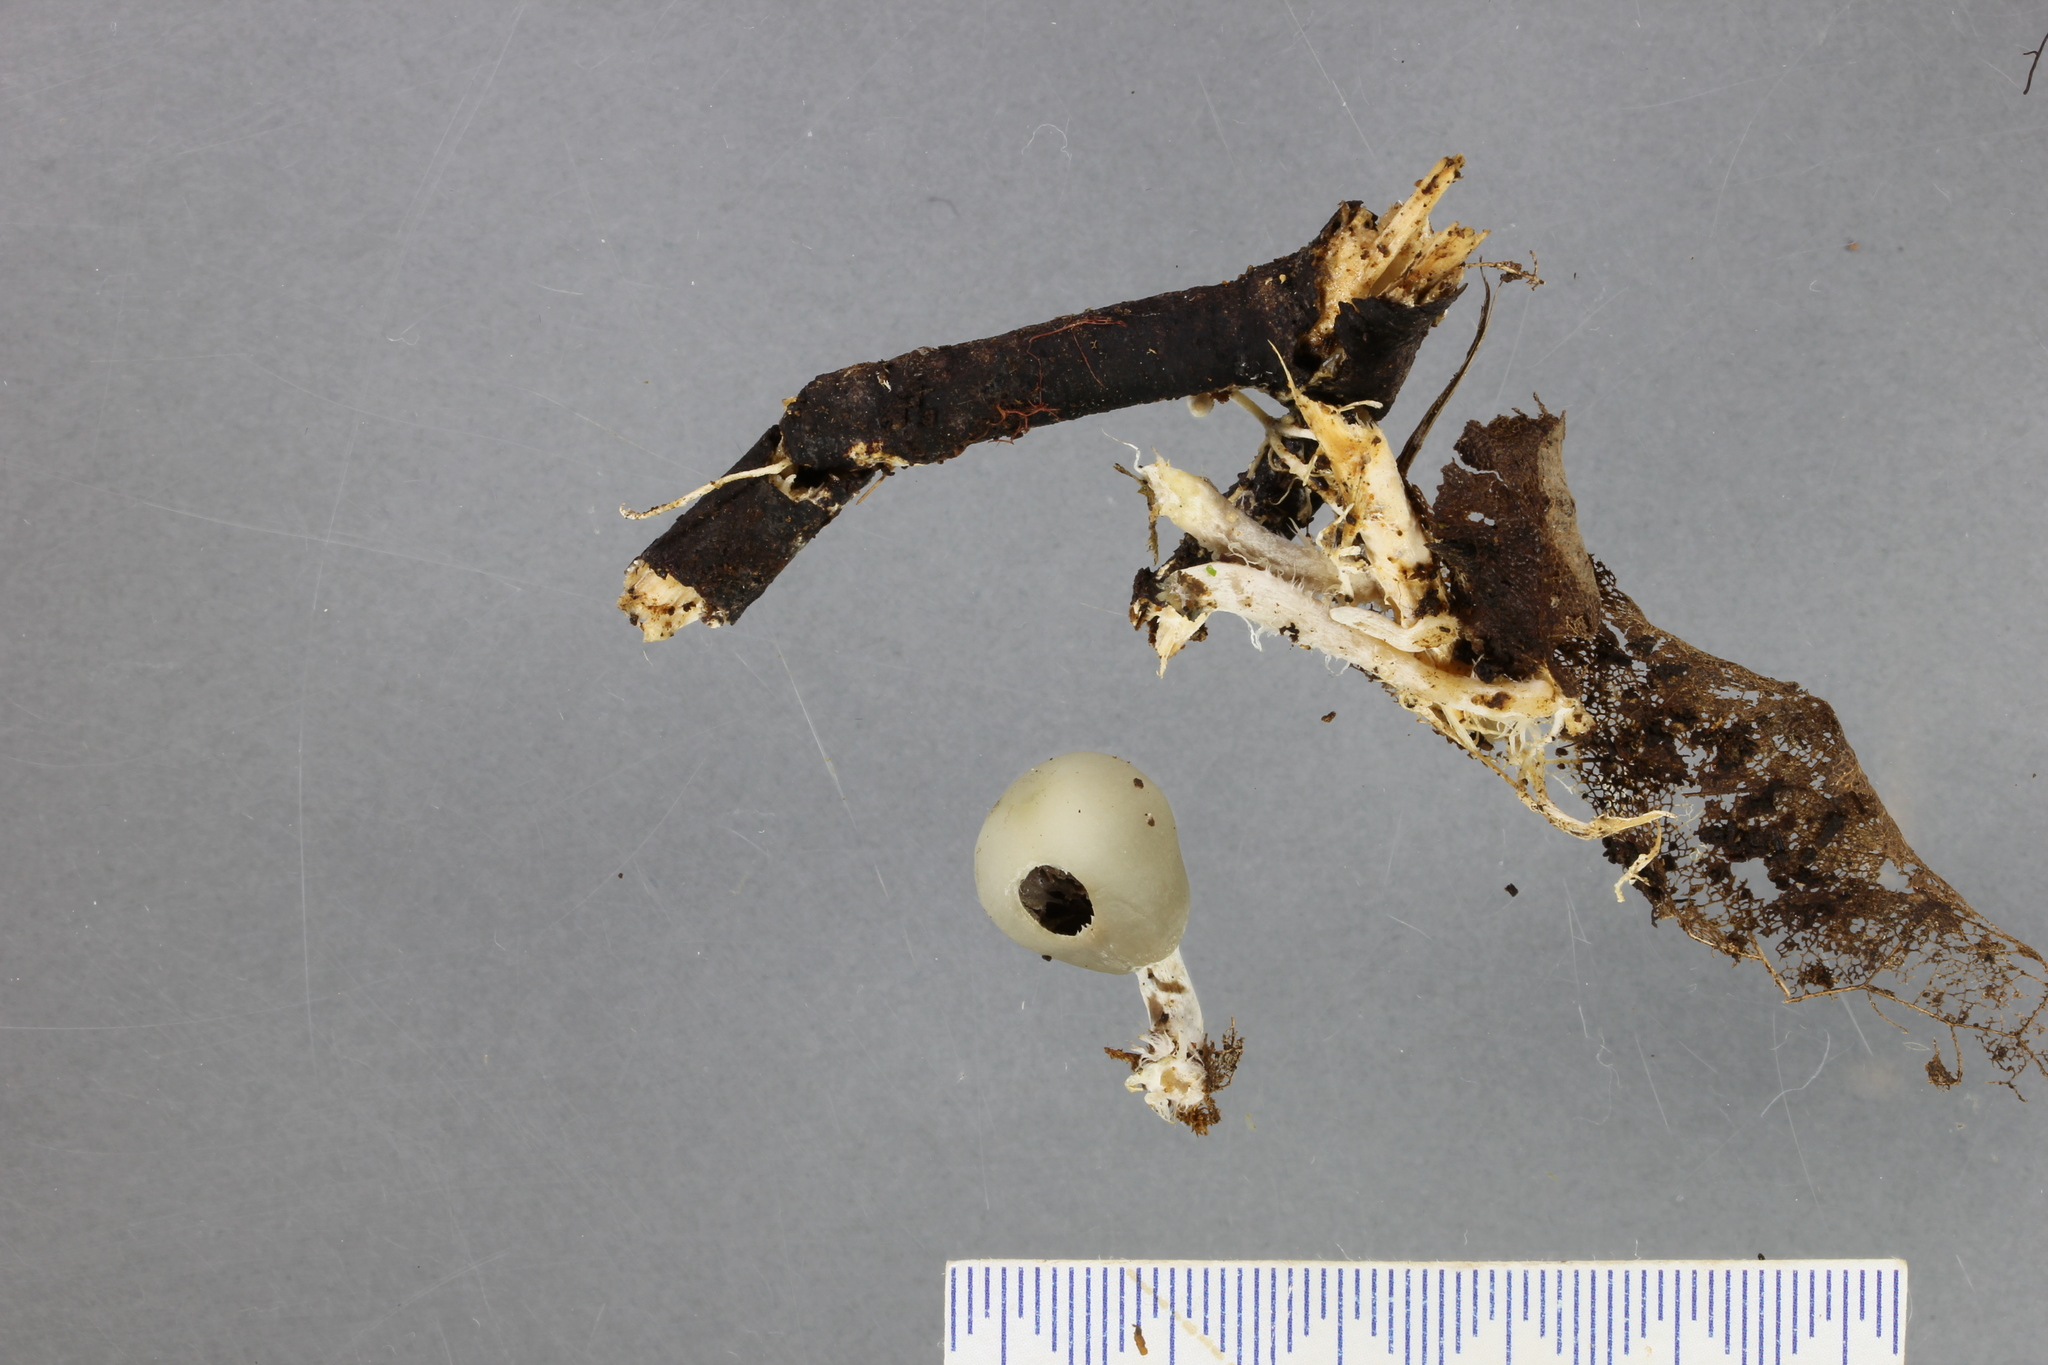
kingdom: Fungi
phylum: Basidiomycota
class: Agaricomycetes
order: Agaricales
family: Hymenogastraceae
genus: Psilocybe
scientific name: Psilocybe weraroa
